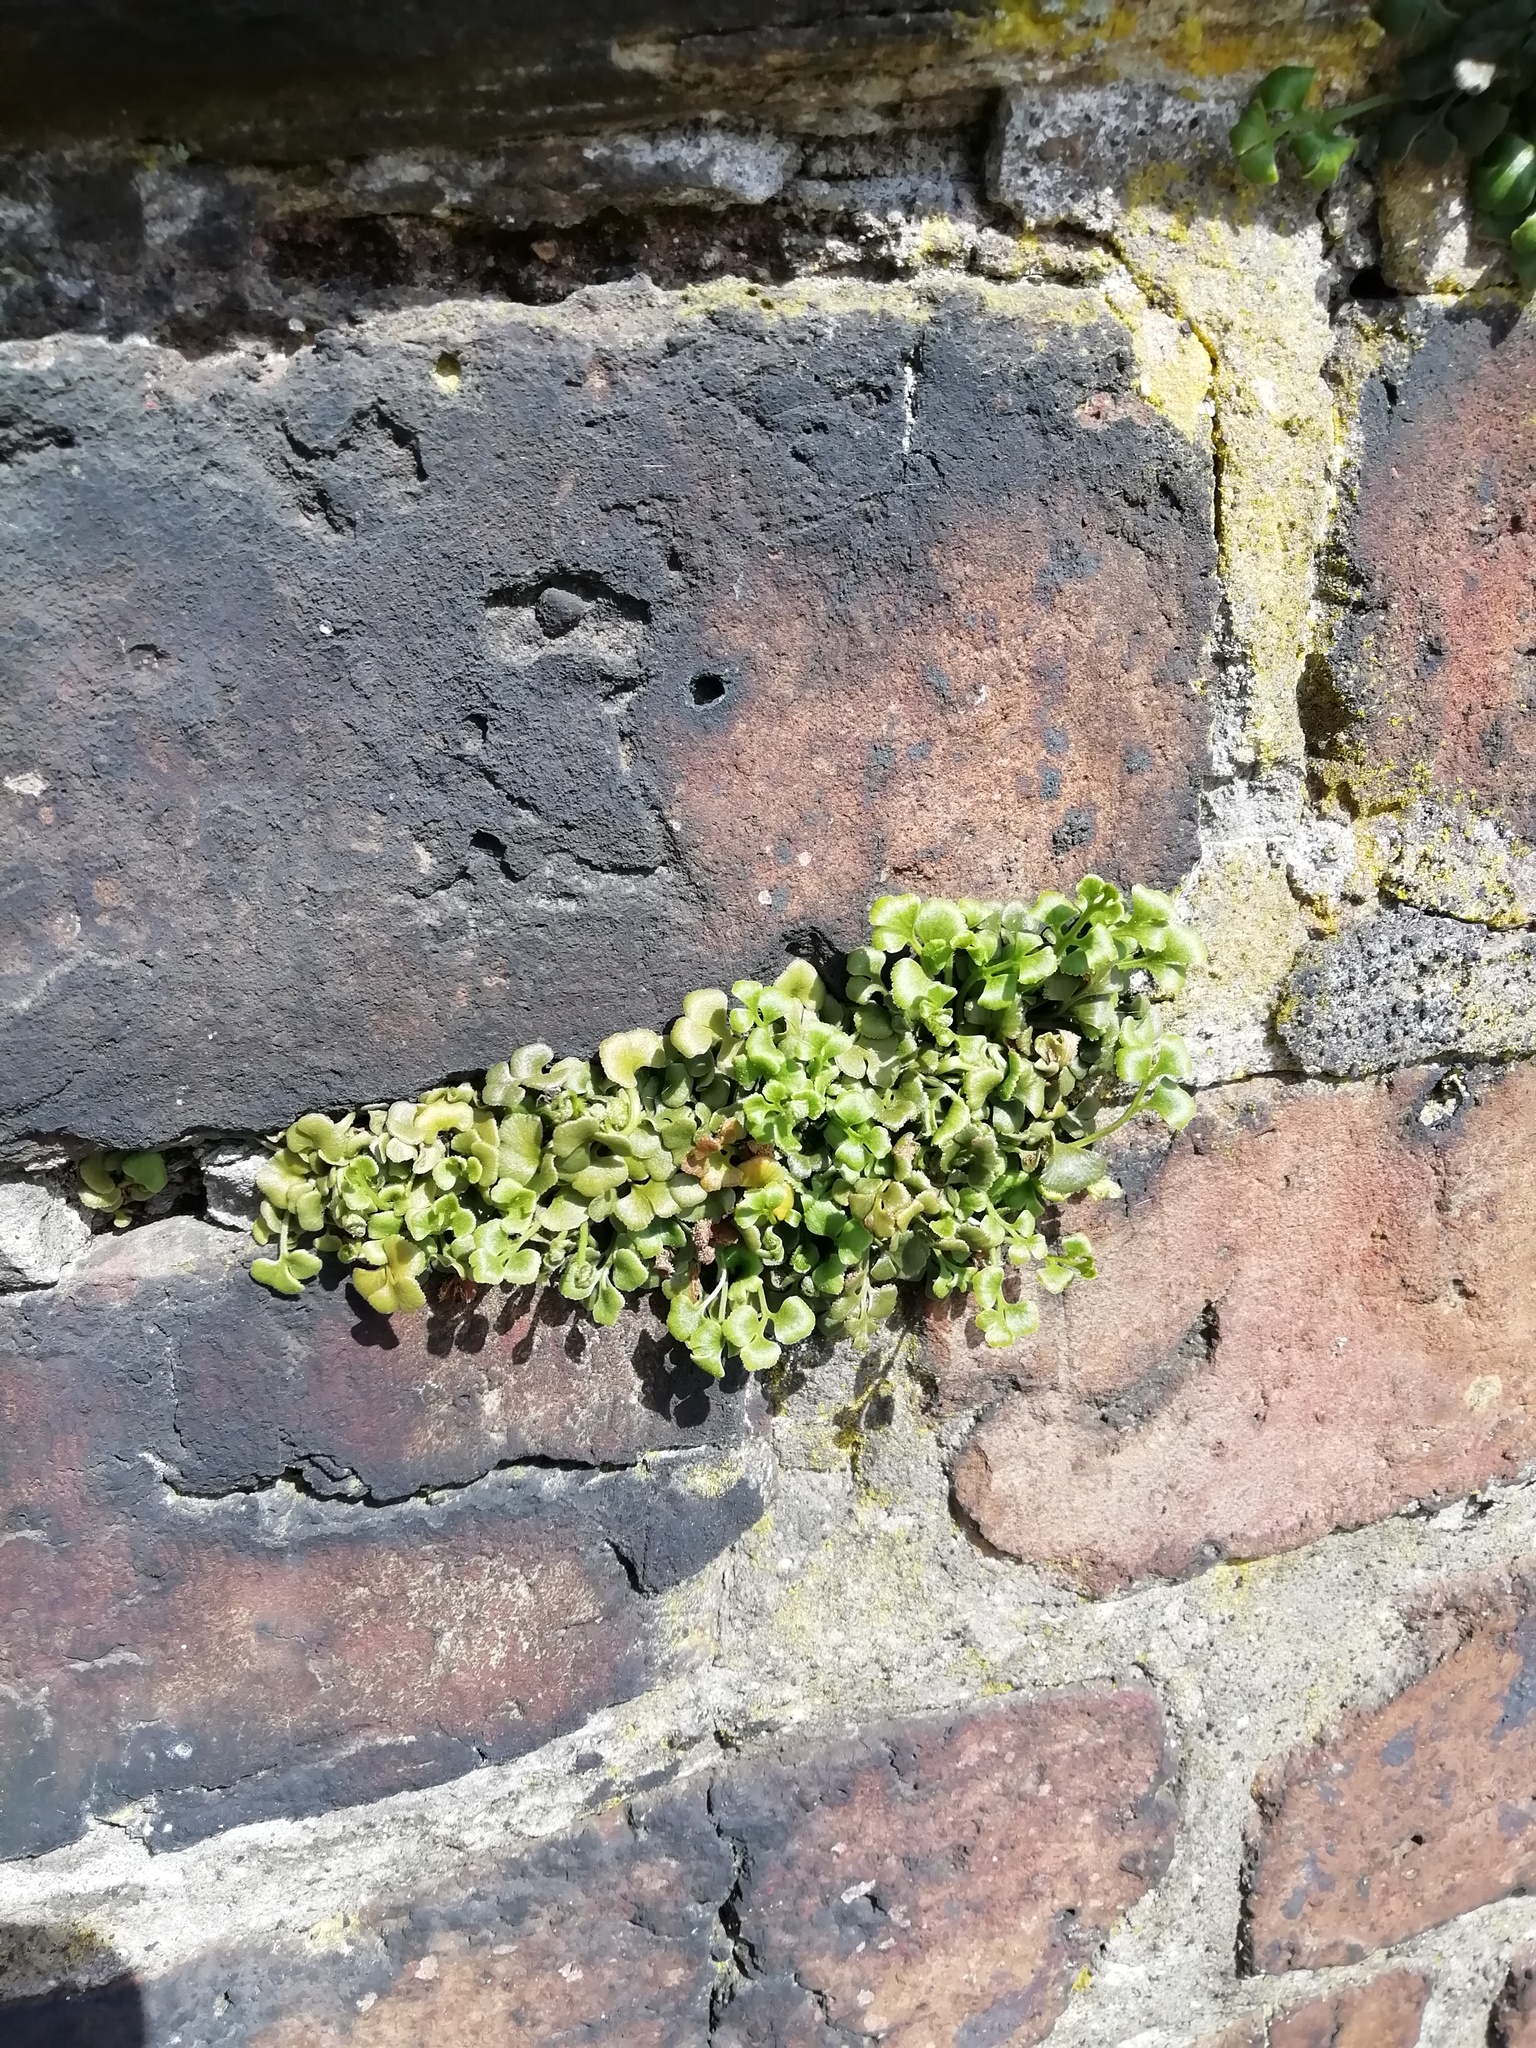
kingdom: Plantae
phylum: Tracheophyta
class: Polypodiopsida
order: Polypodiales
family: Aspleniaceae
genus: Asplenium
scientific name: Asplenium ruta-muraria
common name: Wall-rue
